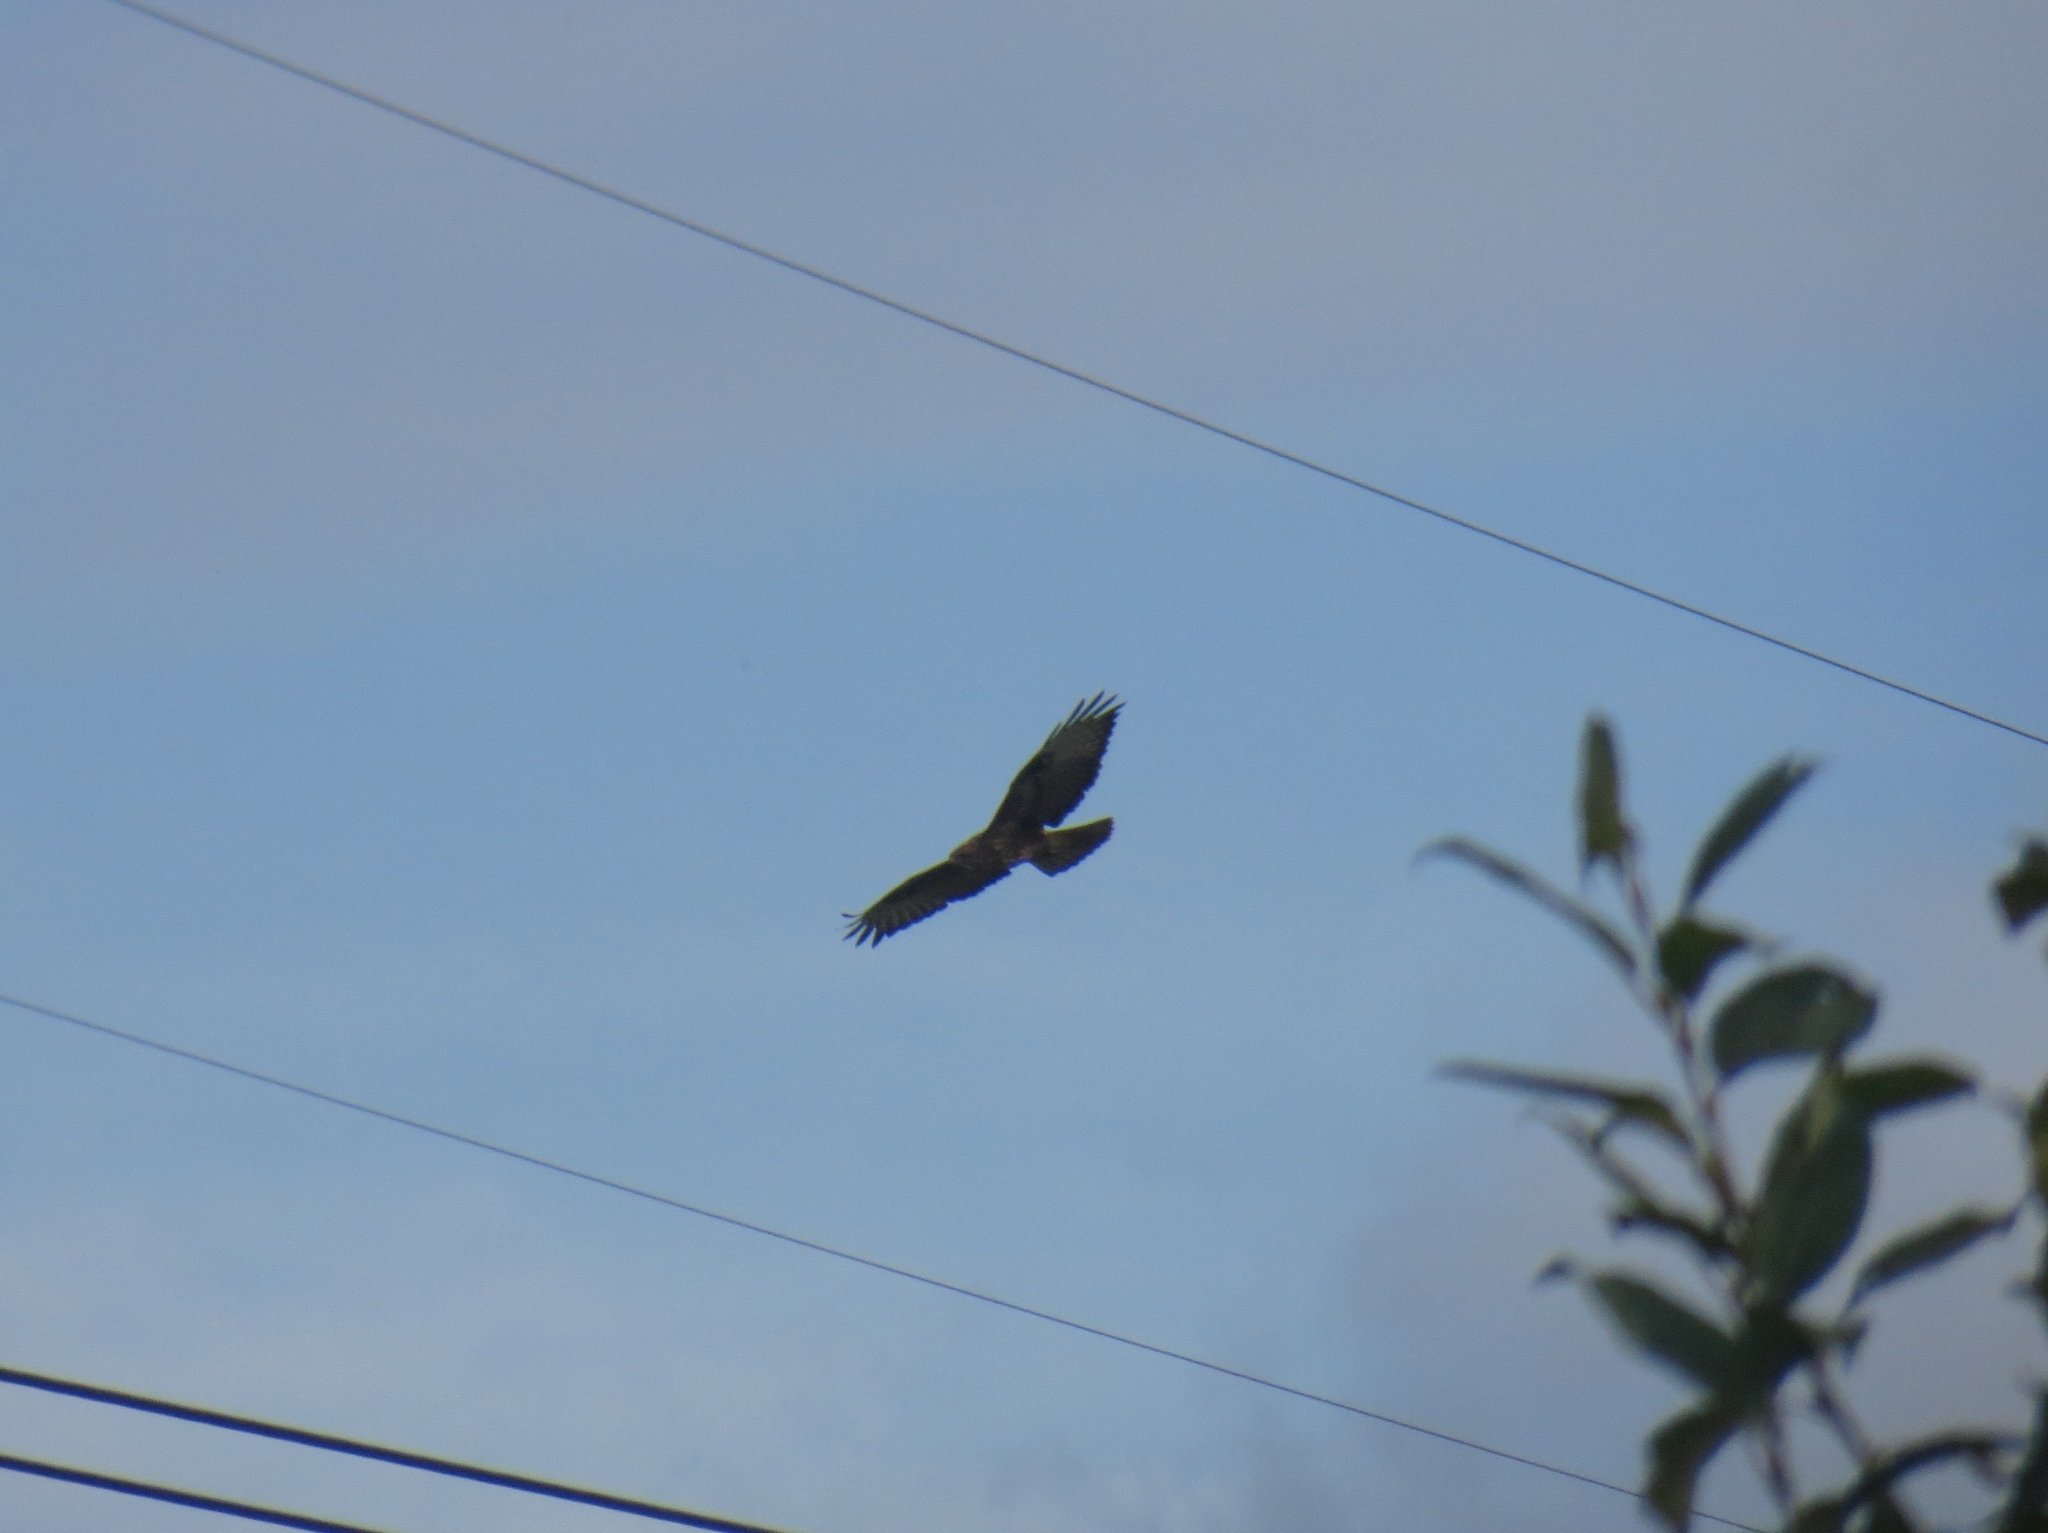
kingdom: Animalia
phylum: Chordata
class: Aves
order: Accipitriformes
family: Accipitridae
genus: Buteo
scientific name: Buteo buteo
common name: Common buzzard
